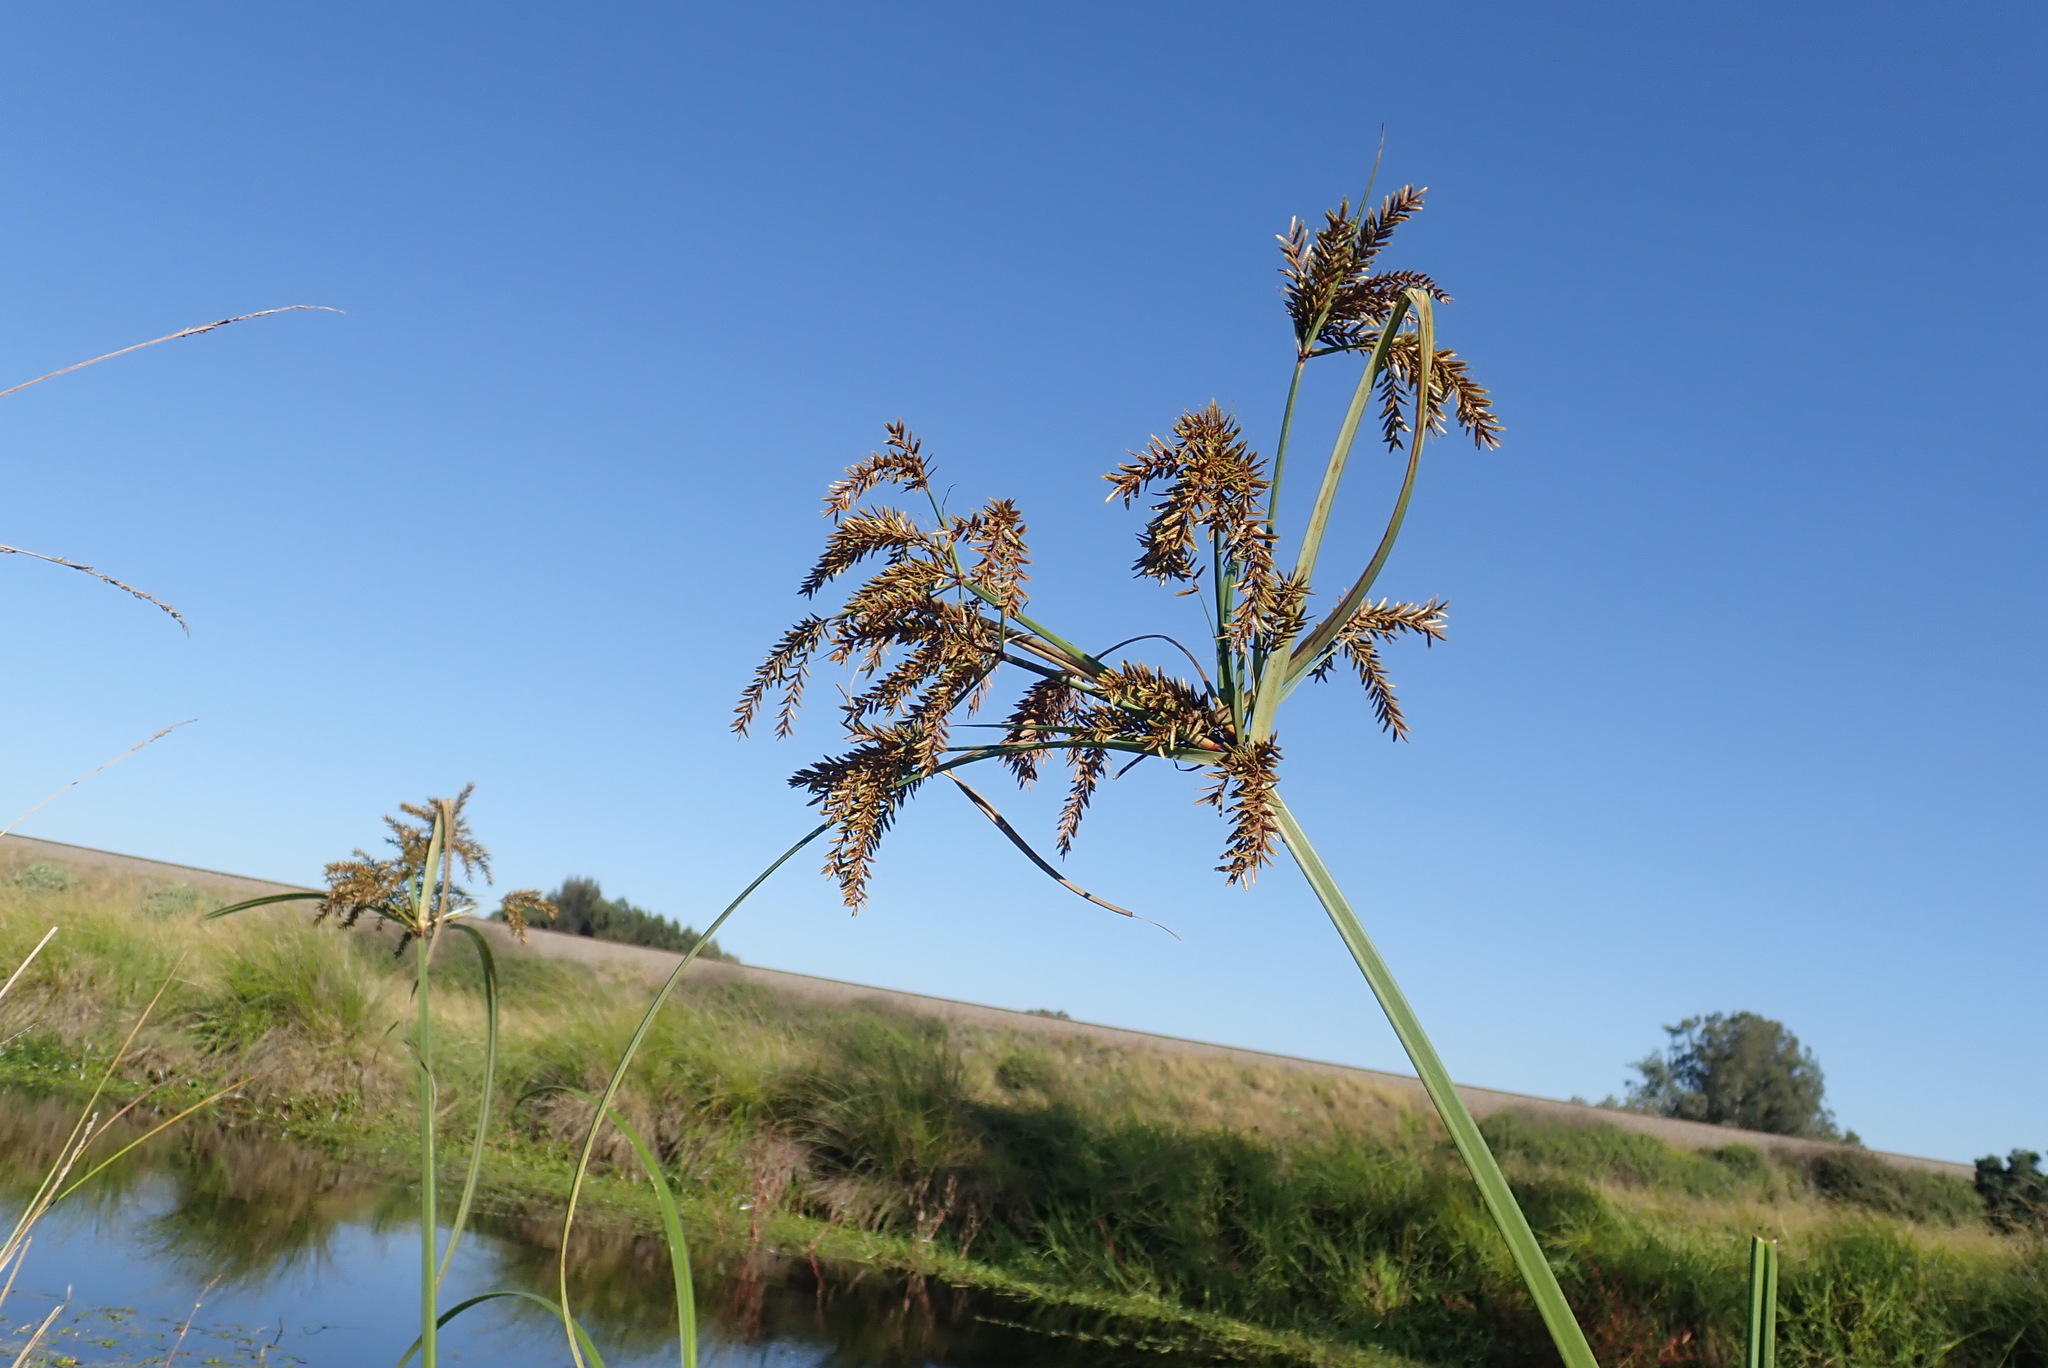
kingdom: Plantae
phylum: Tracheophyta
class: Liliopsida
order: Poales
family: Cyperaceae
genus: Cyperus
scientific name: Cyperus exaltatus
